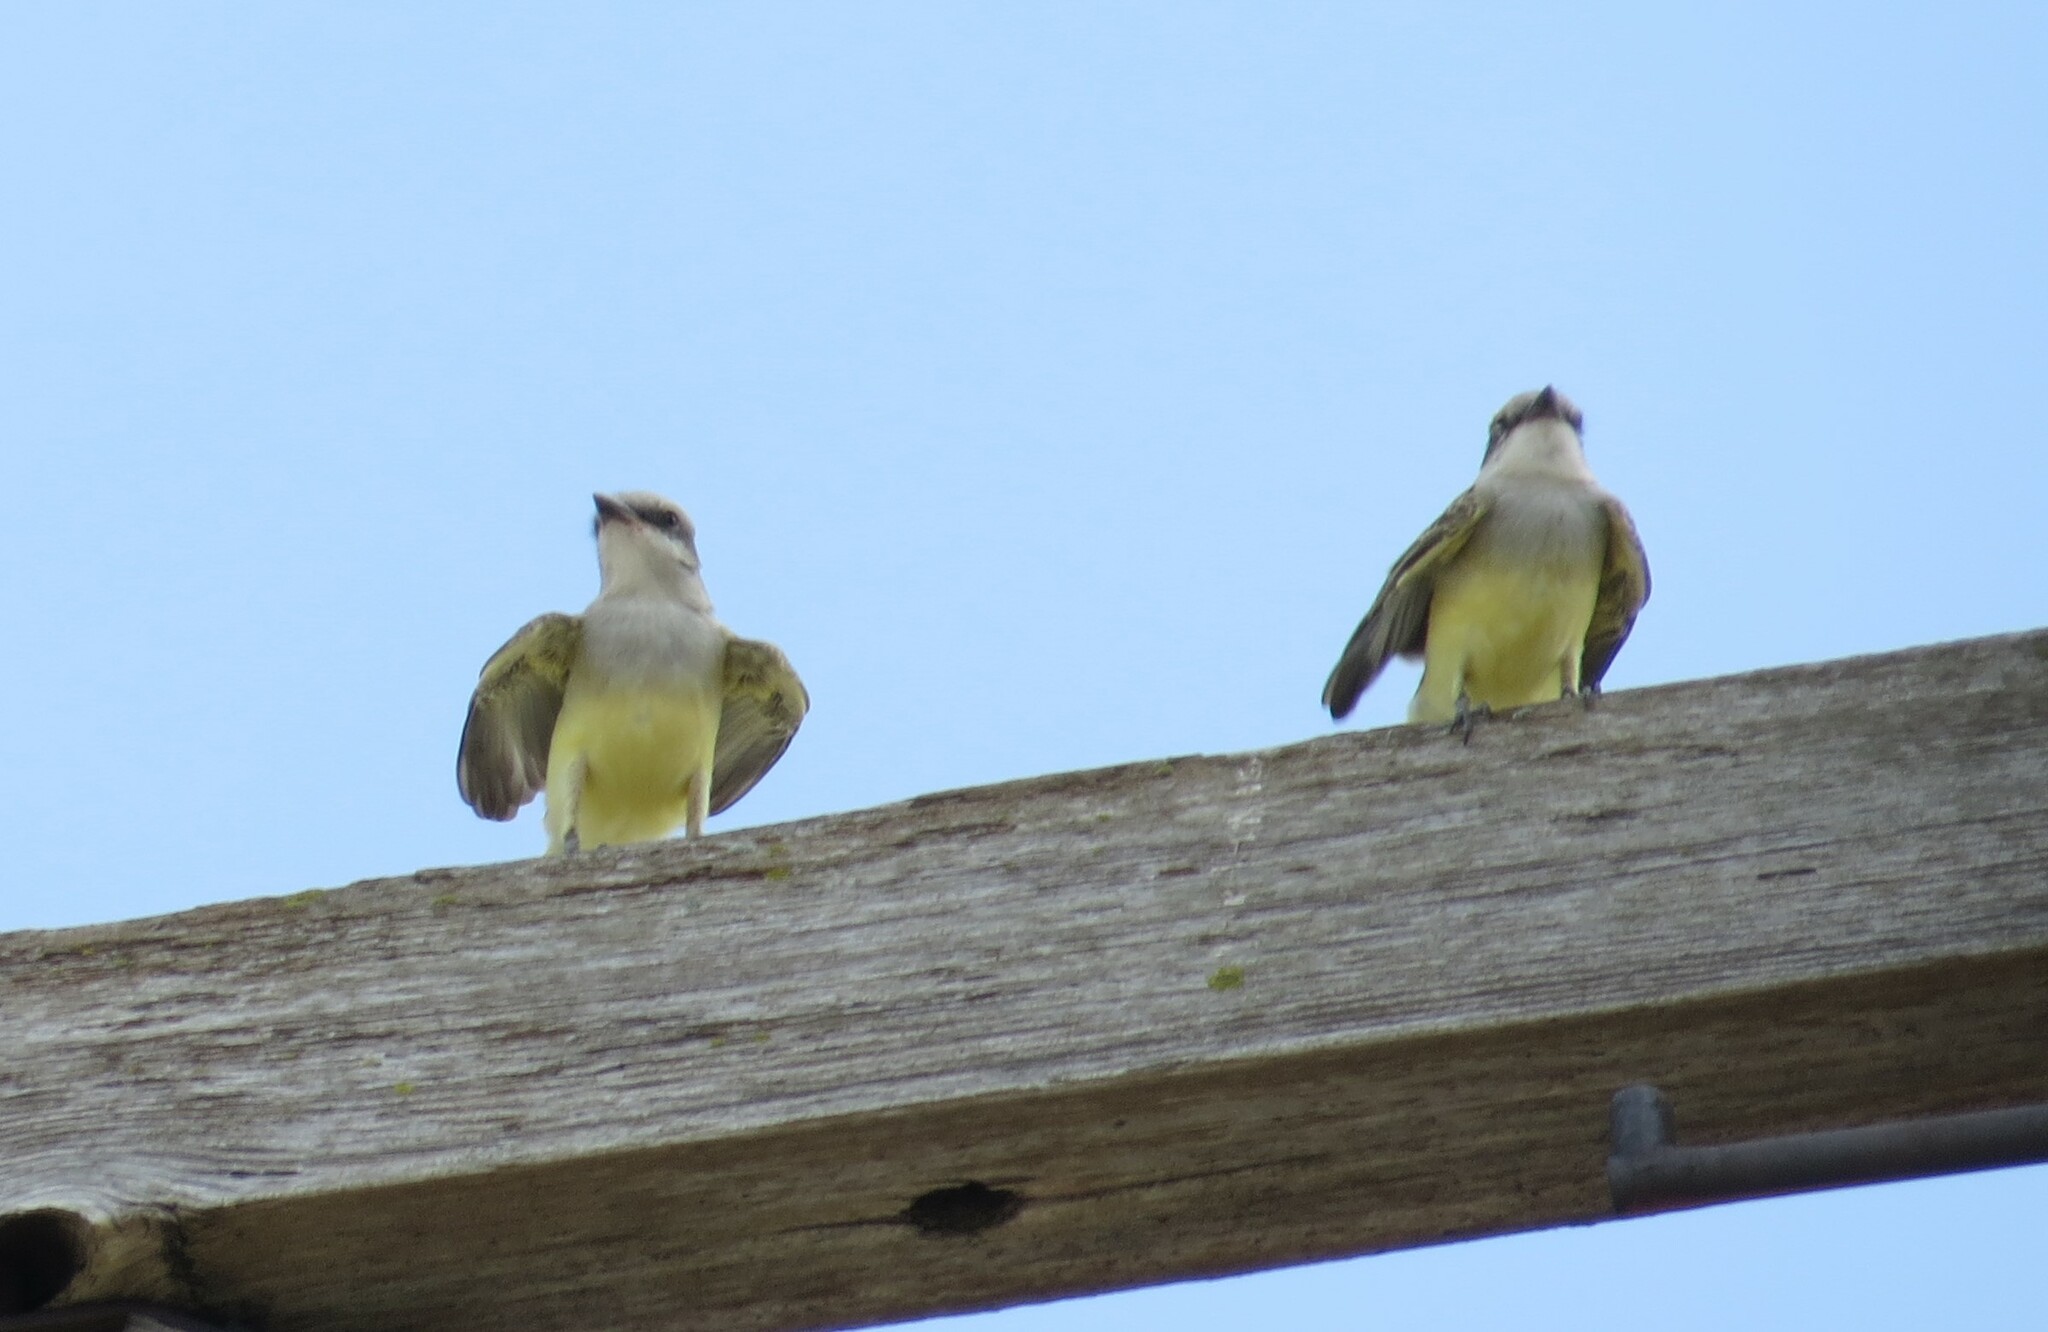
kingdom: Animalia
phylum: Chordata
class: Aves
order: Passeriformes
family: Tyrannidae
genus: Tyrannus
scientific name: Tyrannus verticalis
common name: Western kingbird
